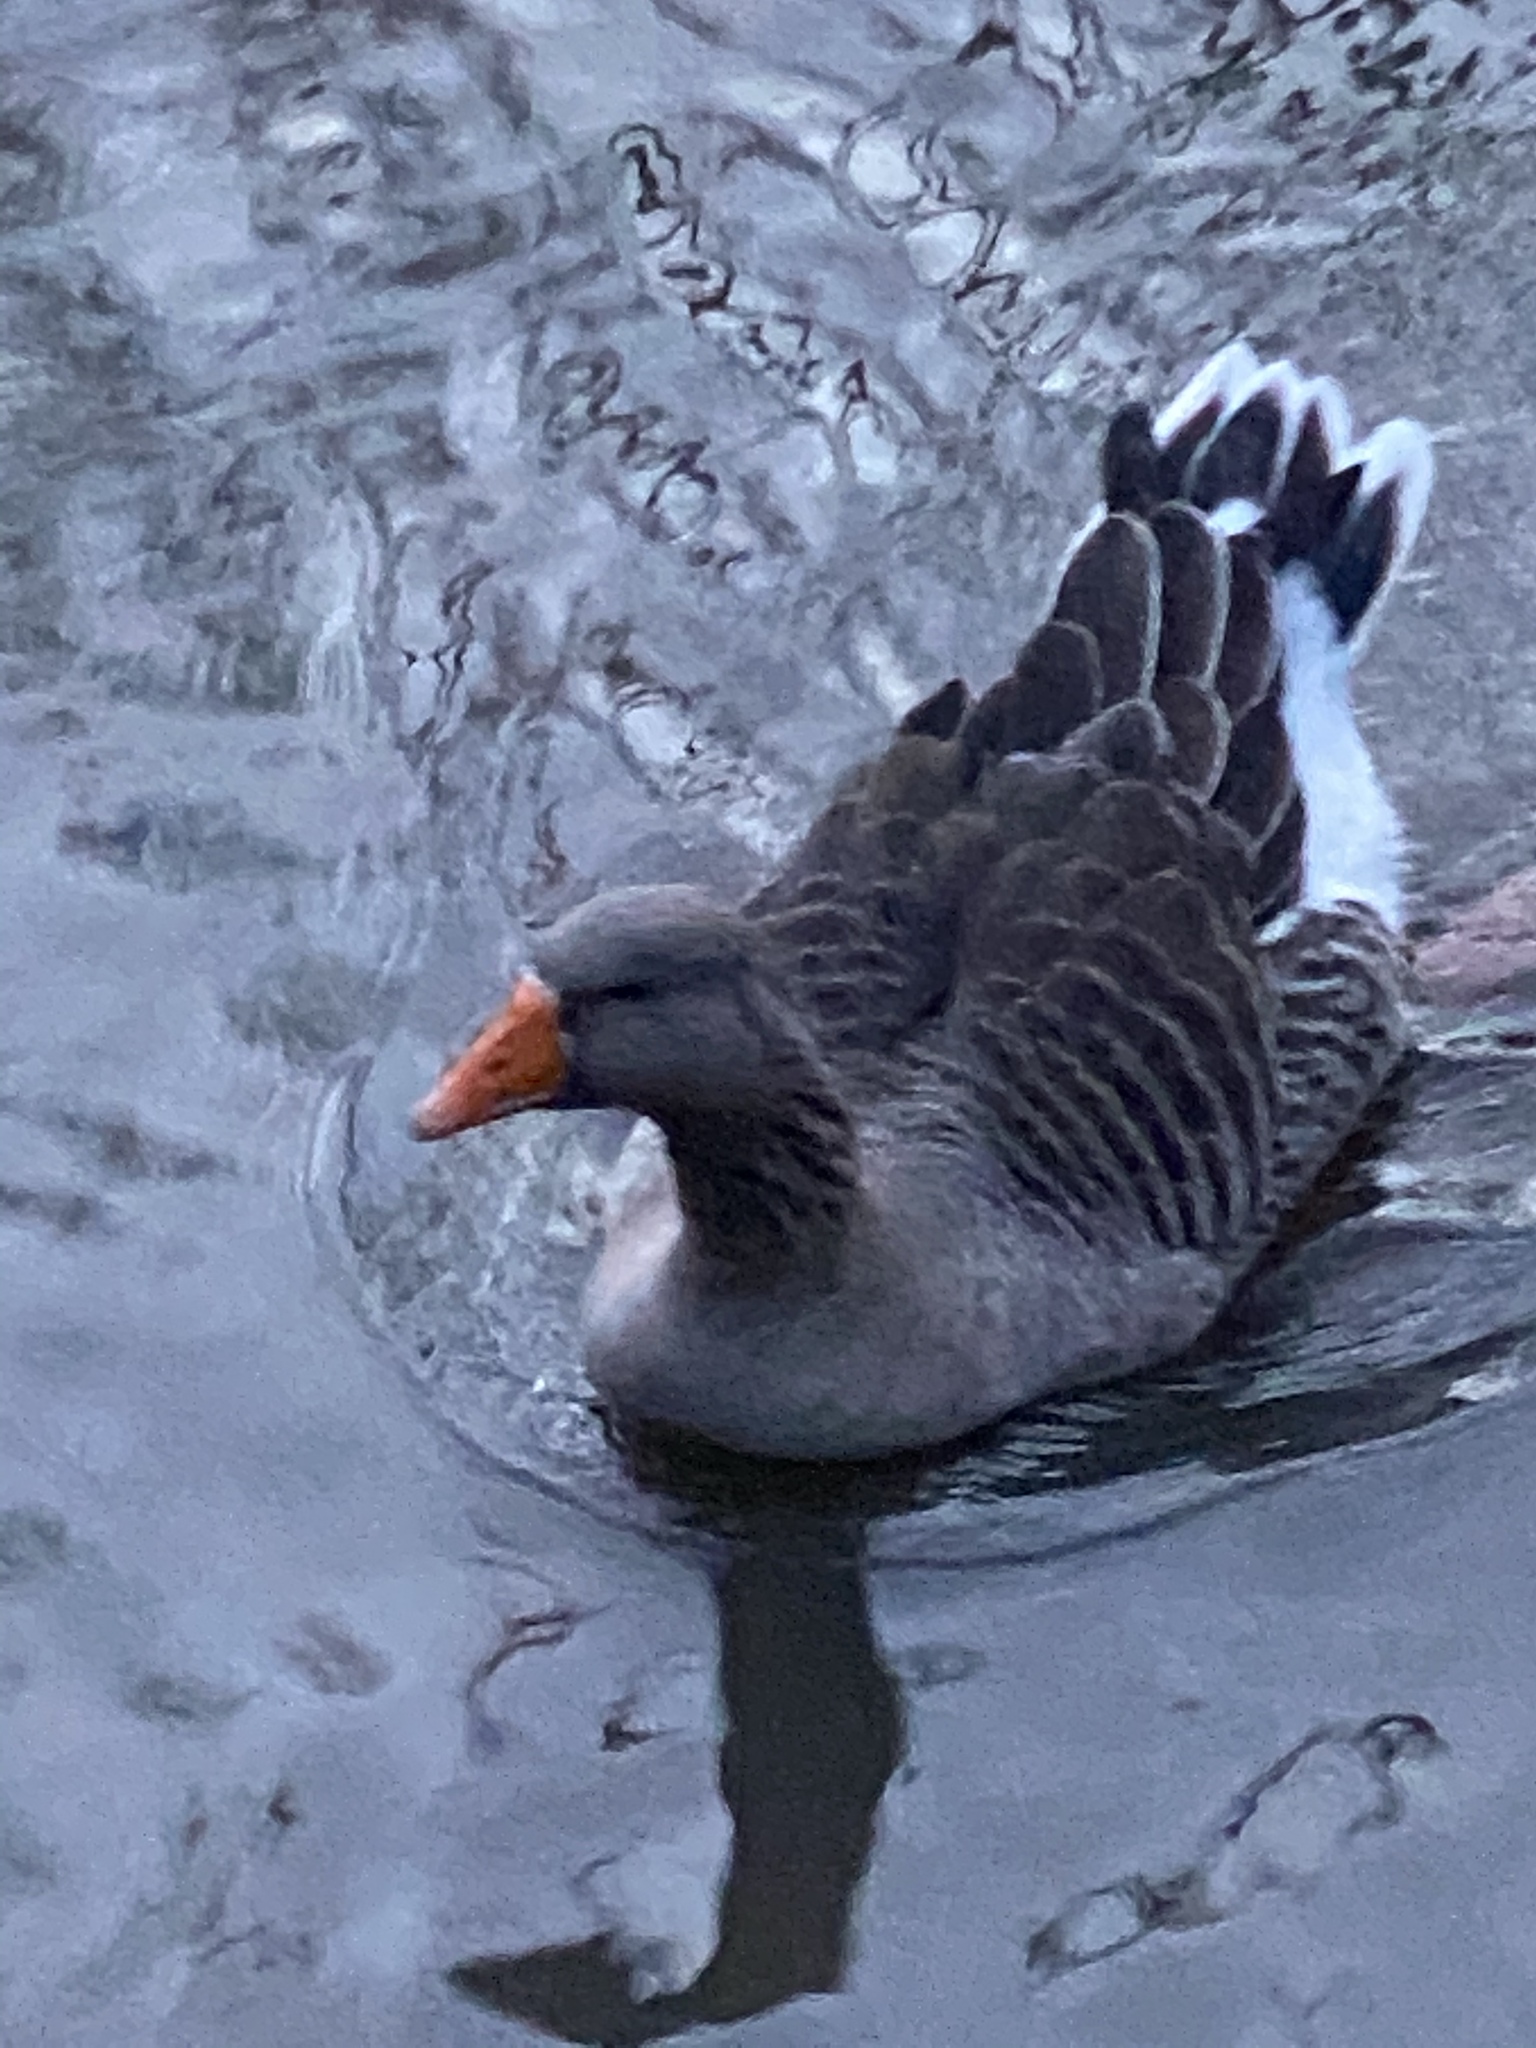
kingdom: Animalia
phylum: Chordata
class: Aves
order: Anseriformes
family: Anatidae
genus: Anser
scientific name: Anser anser
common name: Greylag goose
